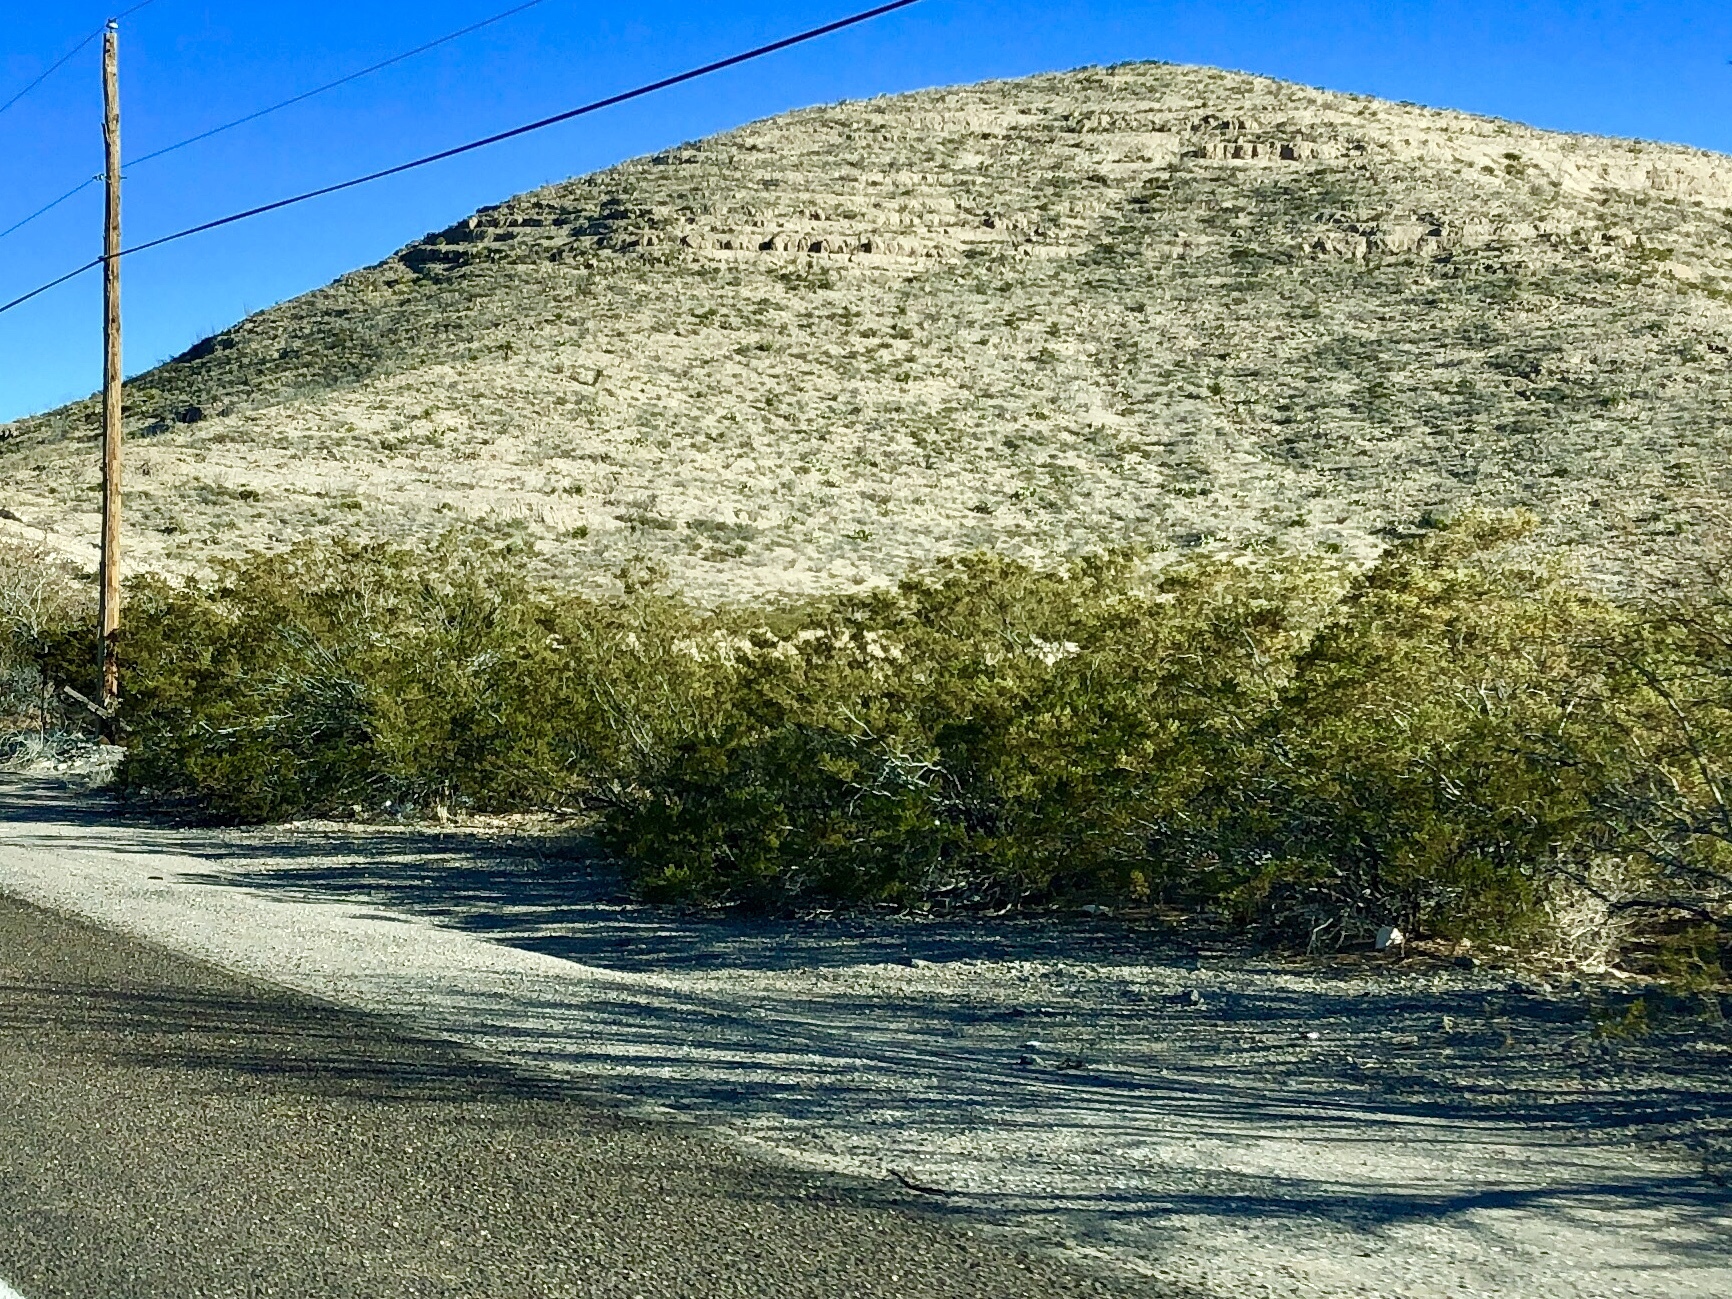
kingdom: Plantae
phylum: Tracheophyta
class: Magnoliopsida
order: Zygophyllales
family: Zygophyllaceae
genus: Larrea
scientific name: Larrea tridentata
